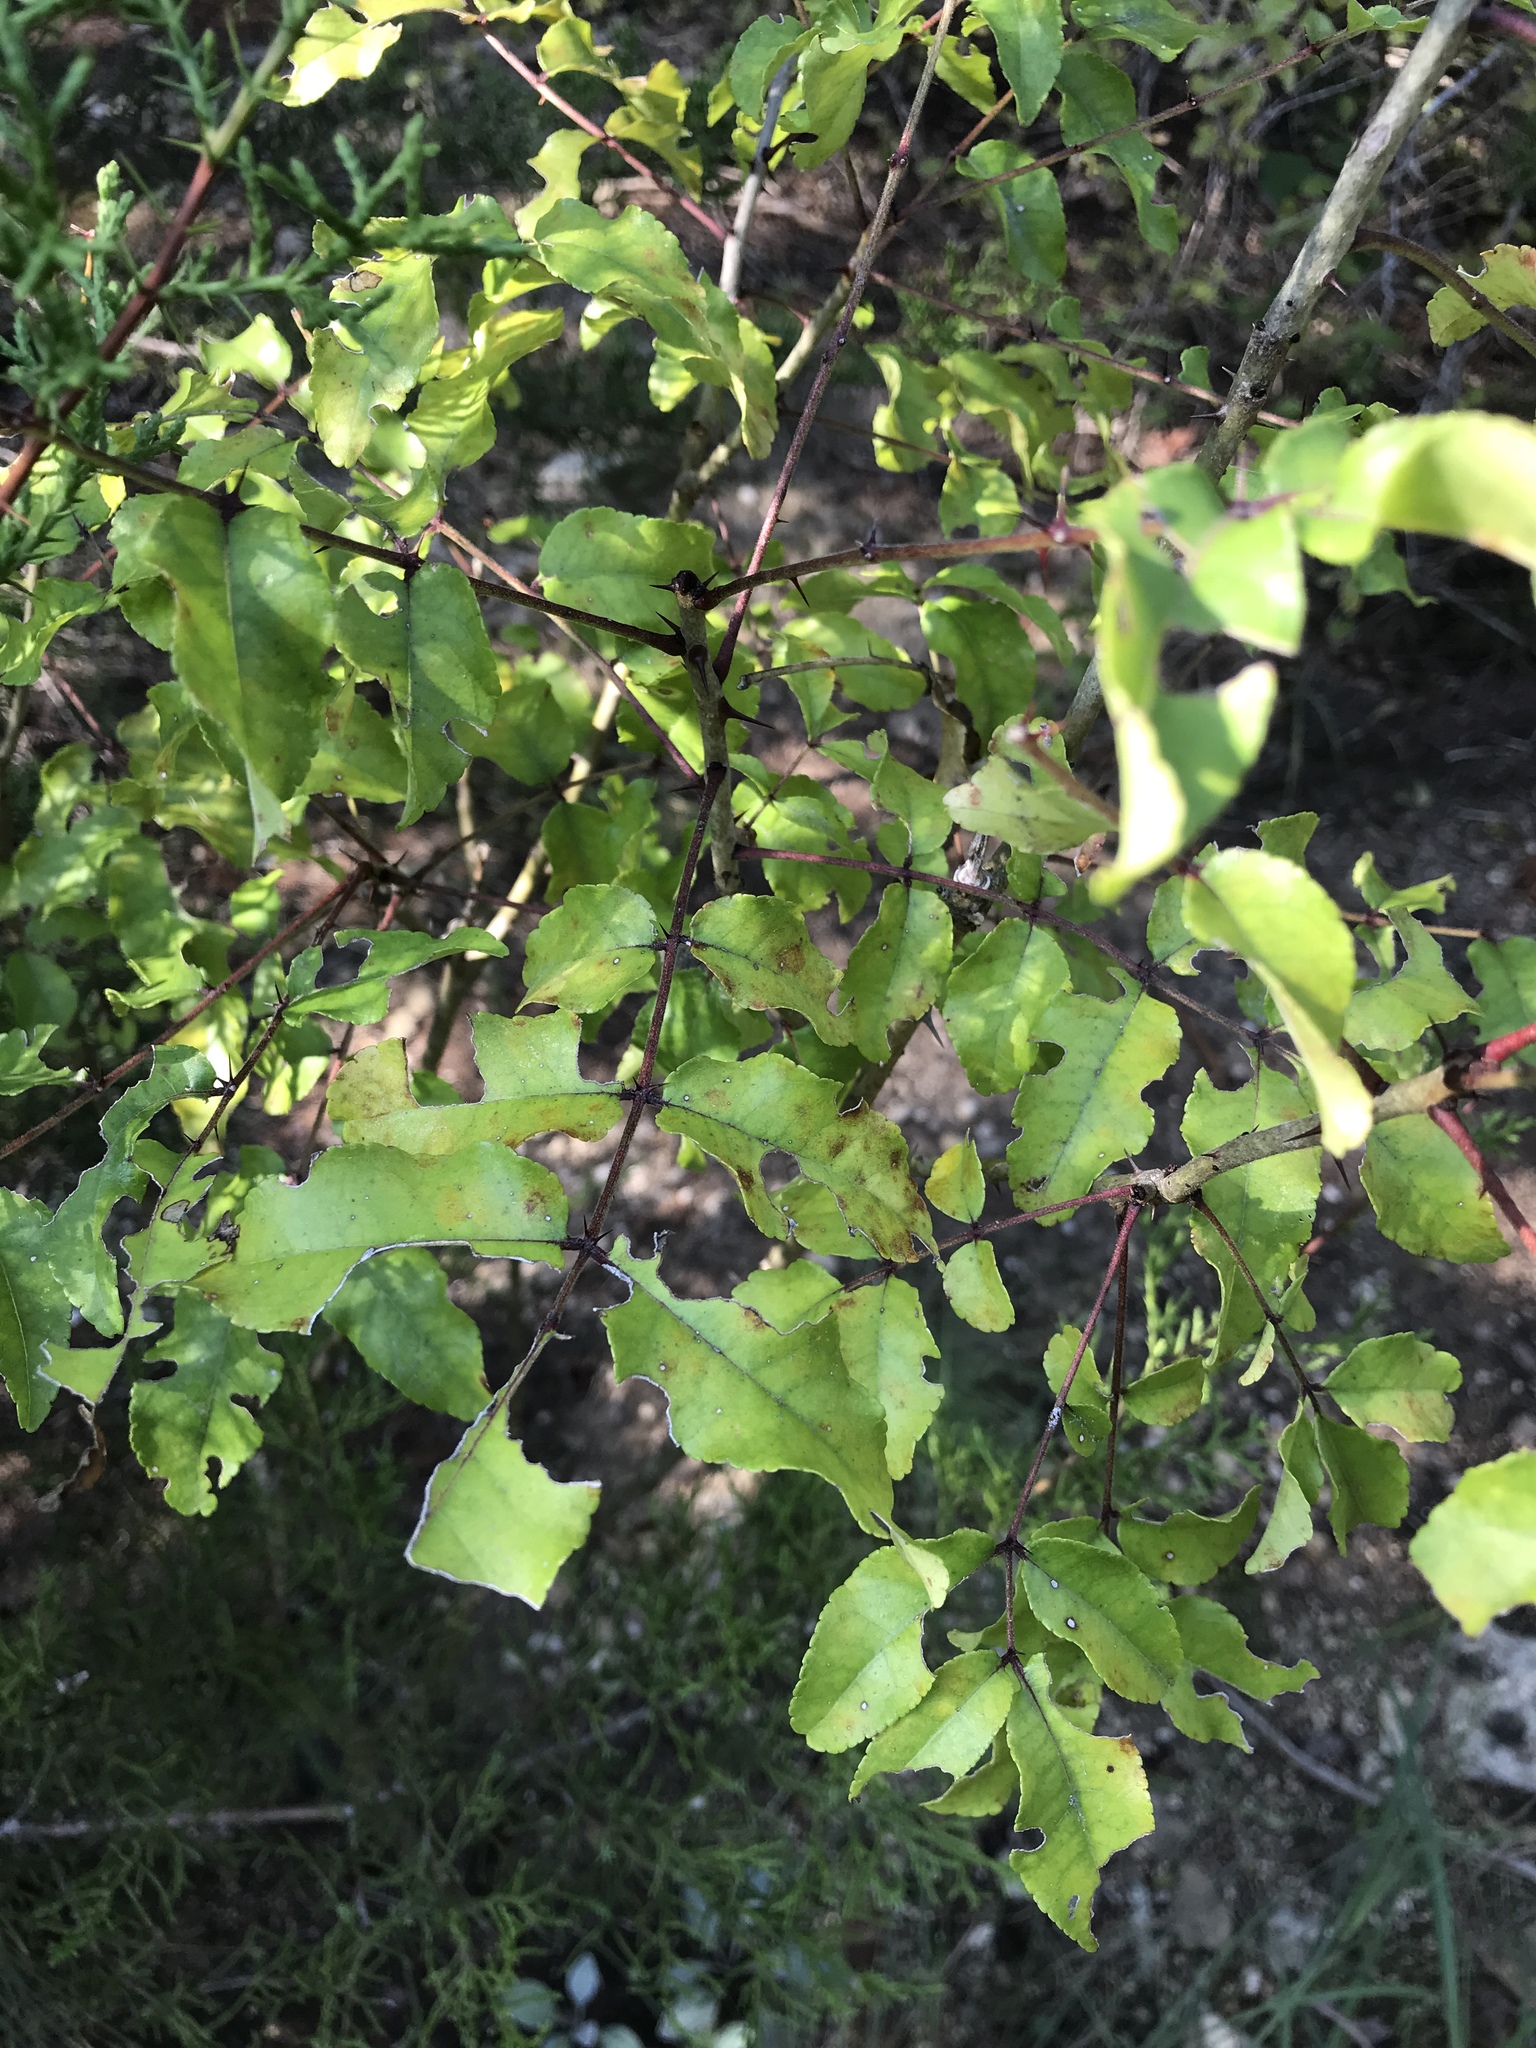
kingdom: Plantae
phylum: Tracheophyta
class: Magnoliopsida
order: Sapindales
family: Rutaceae
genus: Zanthoxylum
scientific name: Zanthoxylum clava-herculis
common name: Hercules'-club
